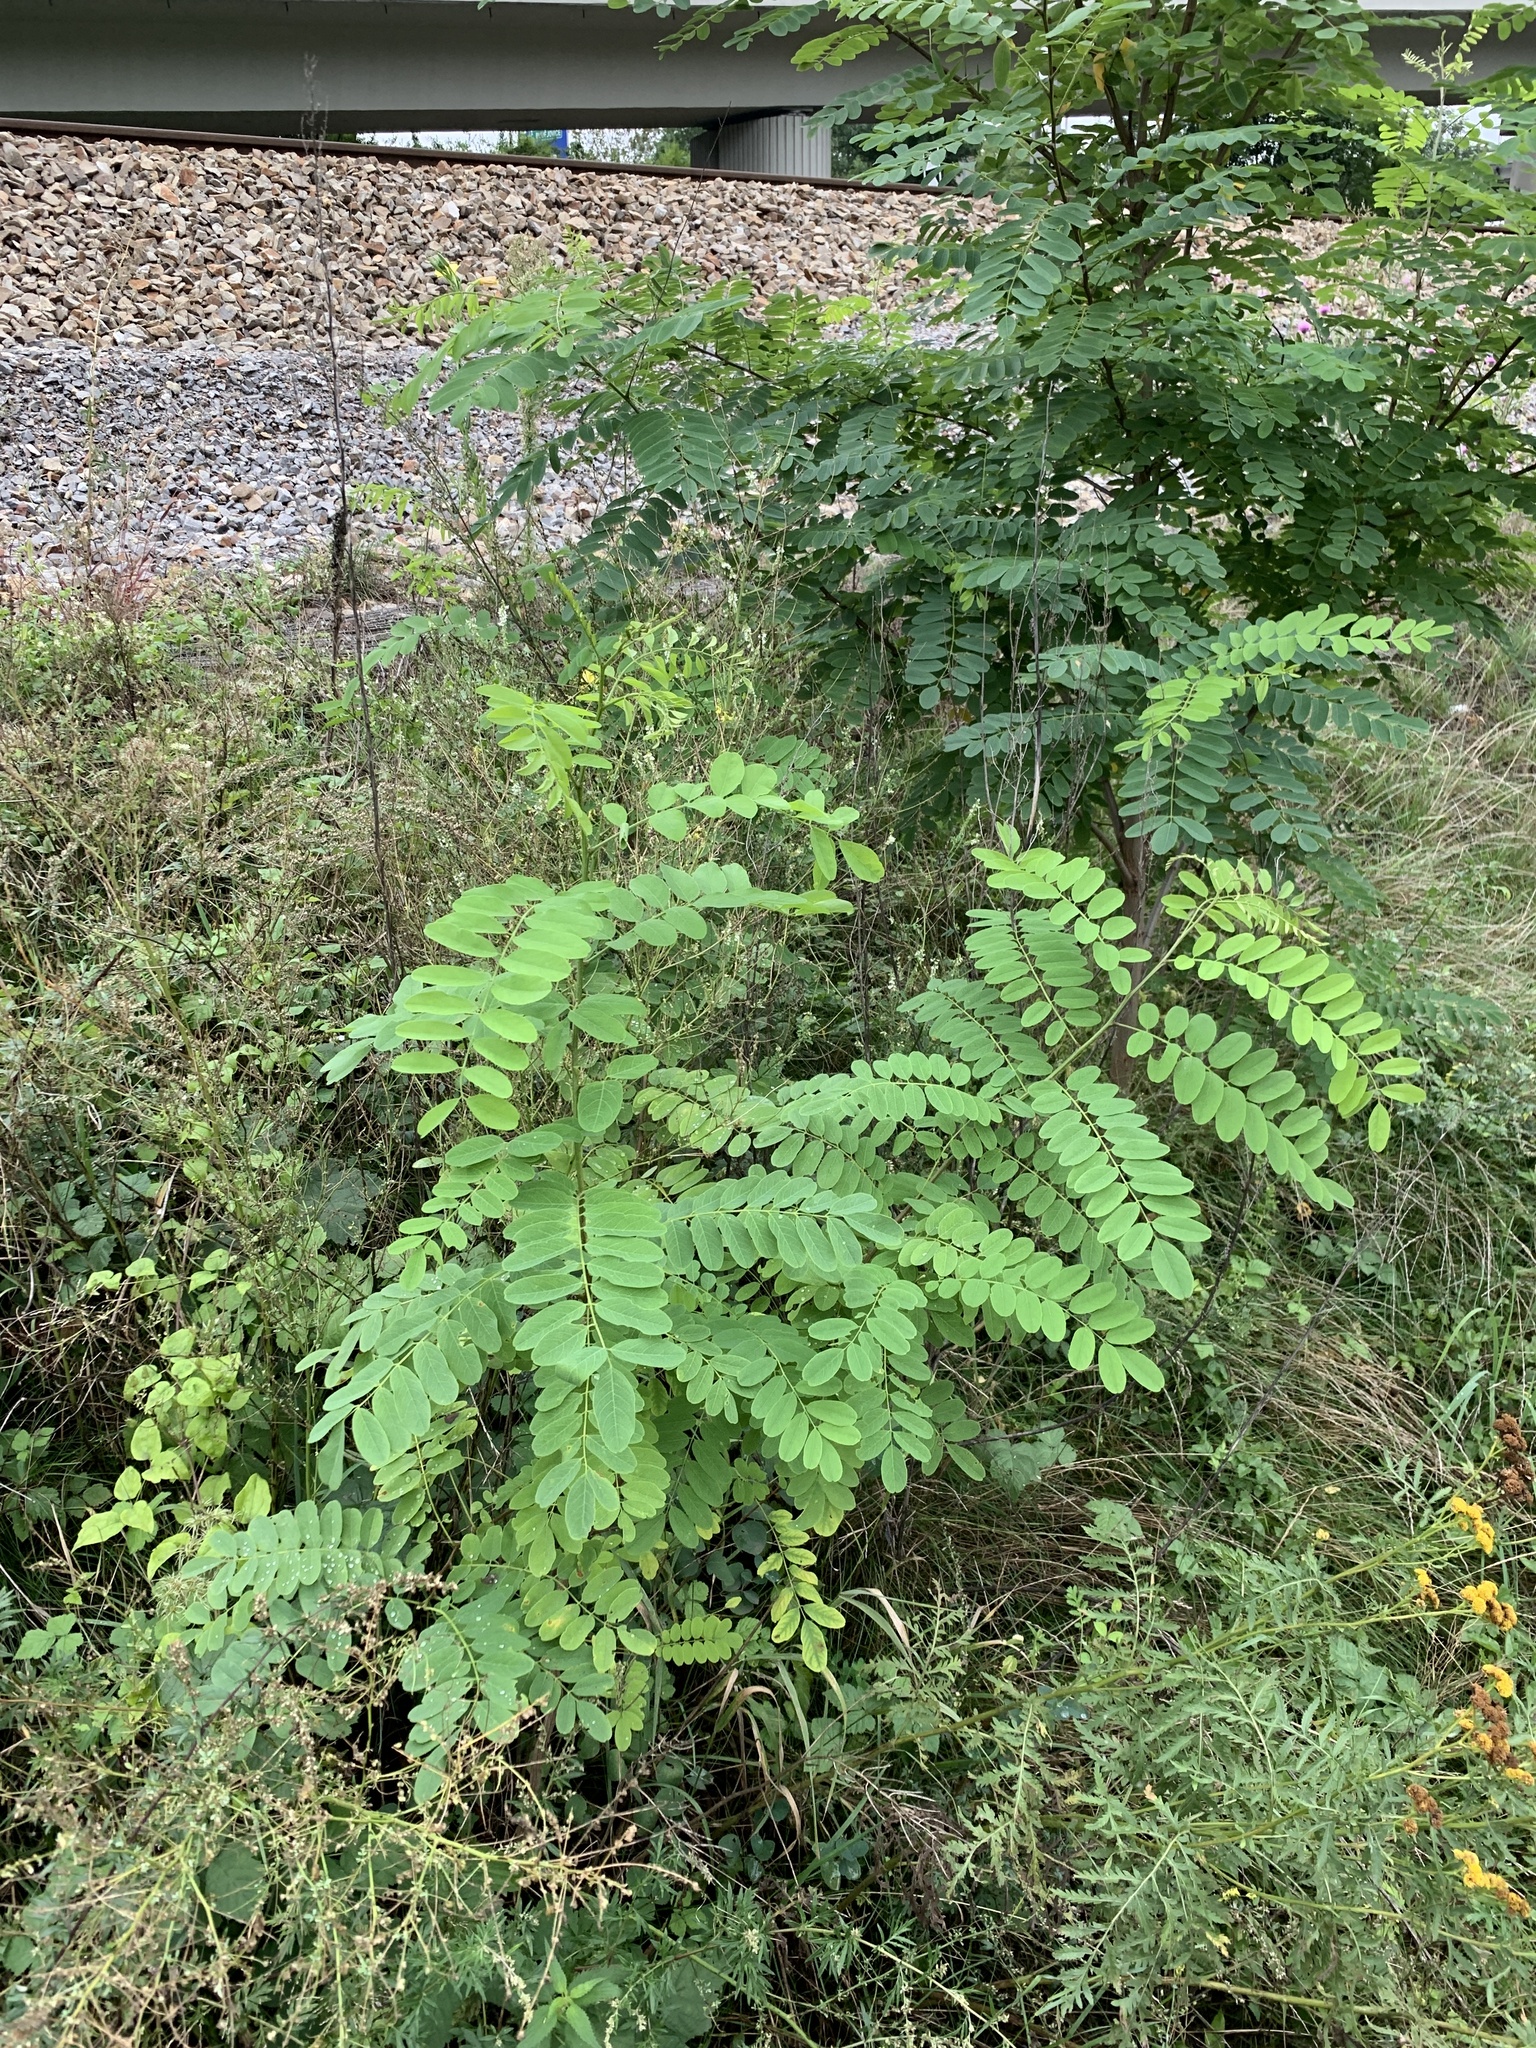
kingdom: Plantae
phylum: Tracheophyta
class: Magnoliopsida
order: Fabales
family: Fabaceae
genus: Robinia
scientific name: Robinia pseudoacacia
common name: Black locust
